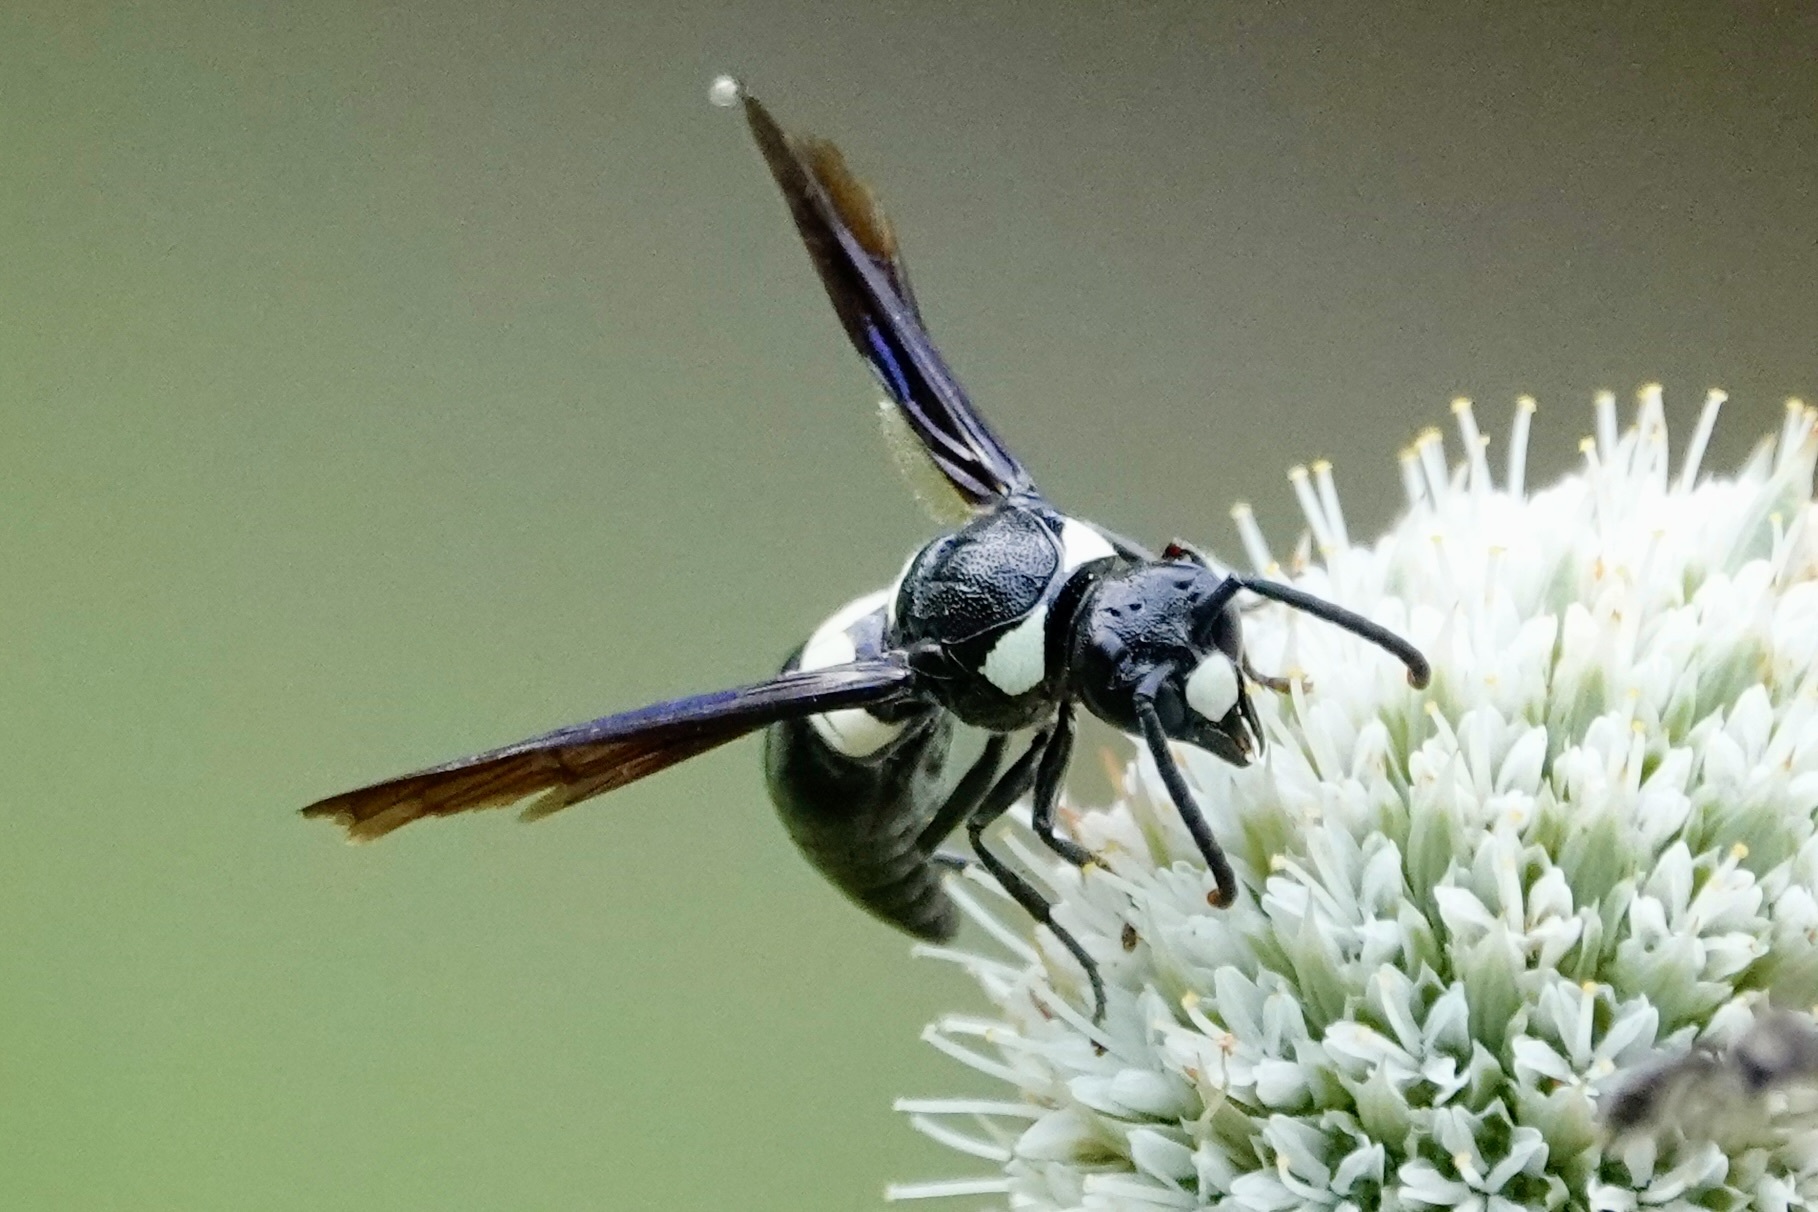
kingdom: Animalia
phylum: Arthropoda
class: Insecta
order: Hymenoptera
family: Eumenidae
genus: Monobia
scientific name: Monobia quadridens
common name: Four-toothed mason wasp
